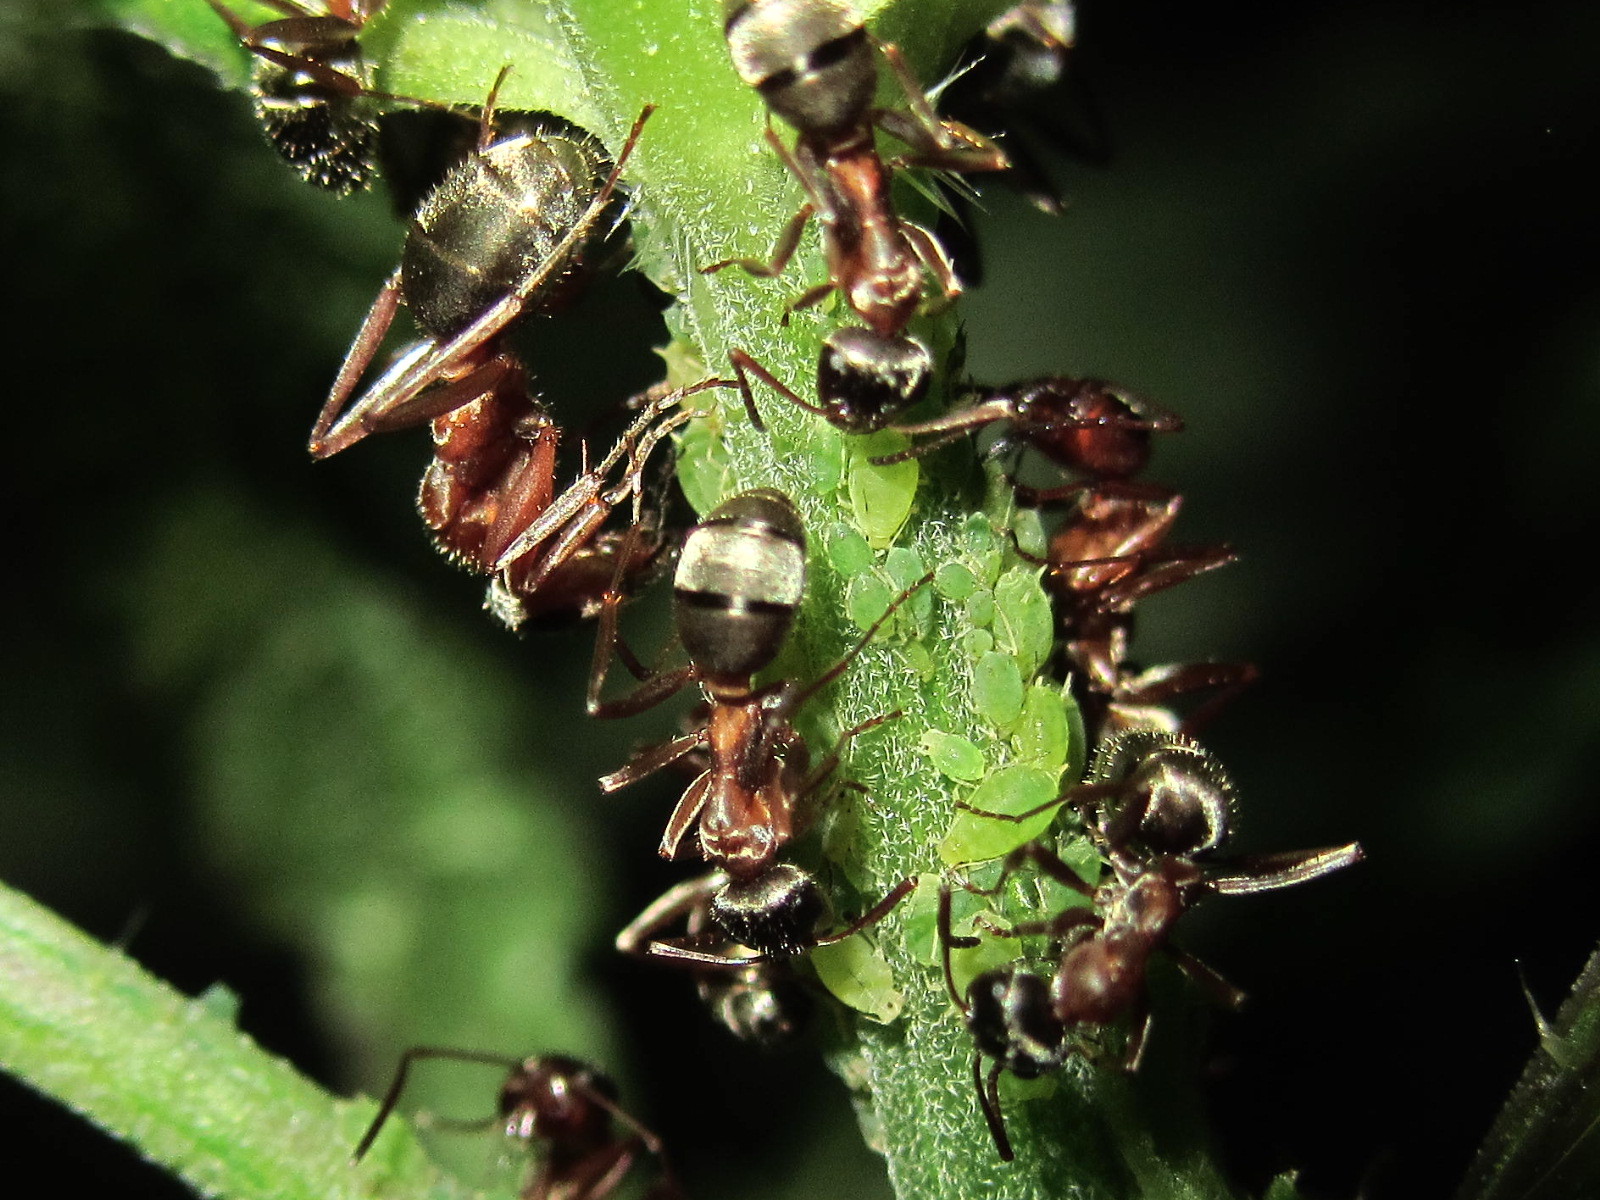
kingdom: Animalia
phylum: Arthropoda
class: Insecta
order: Hymenoptera
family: Formicidae
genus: Formica
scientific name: Formica cinerea
